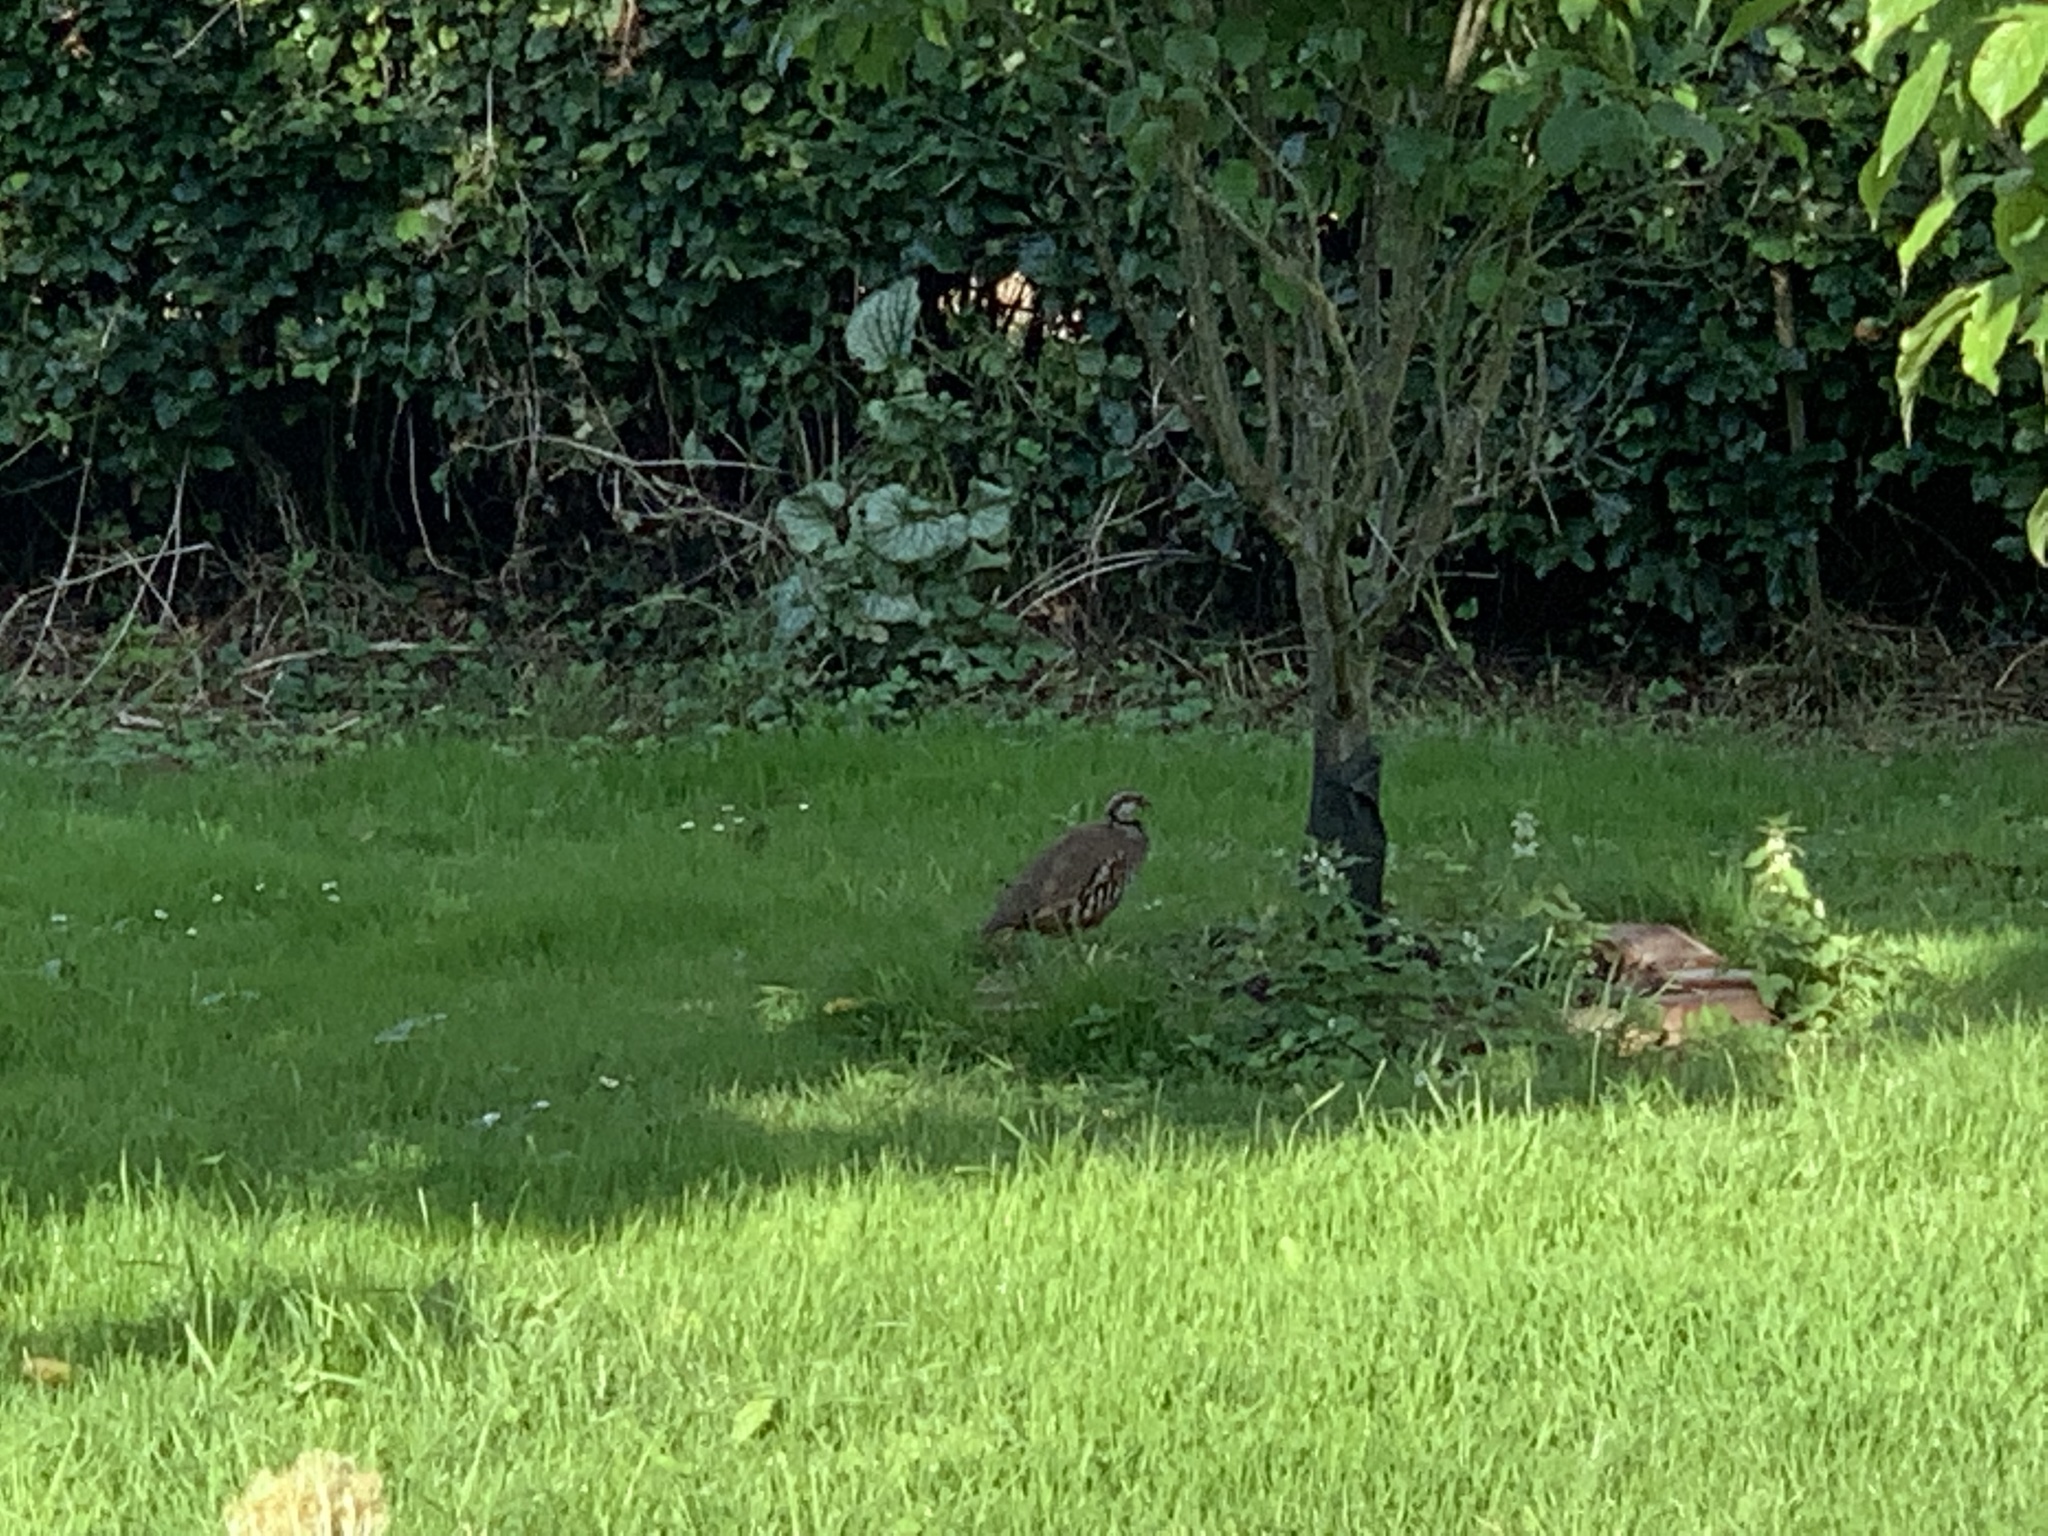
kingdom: Animalia
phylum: Chordata
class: Aves
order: Galliformes
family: Phasianidae
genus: Alectoris
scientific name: Alectoris rufa
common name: Red-legged partridge
